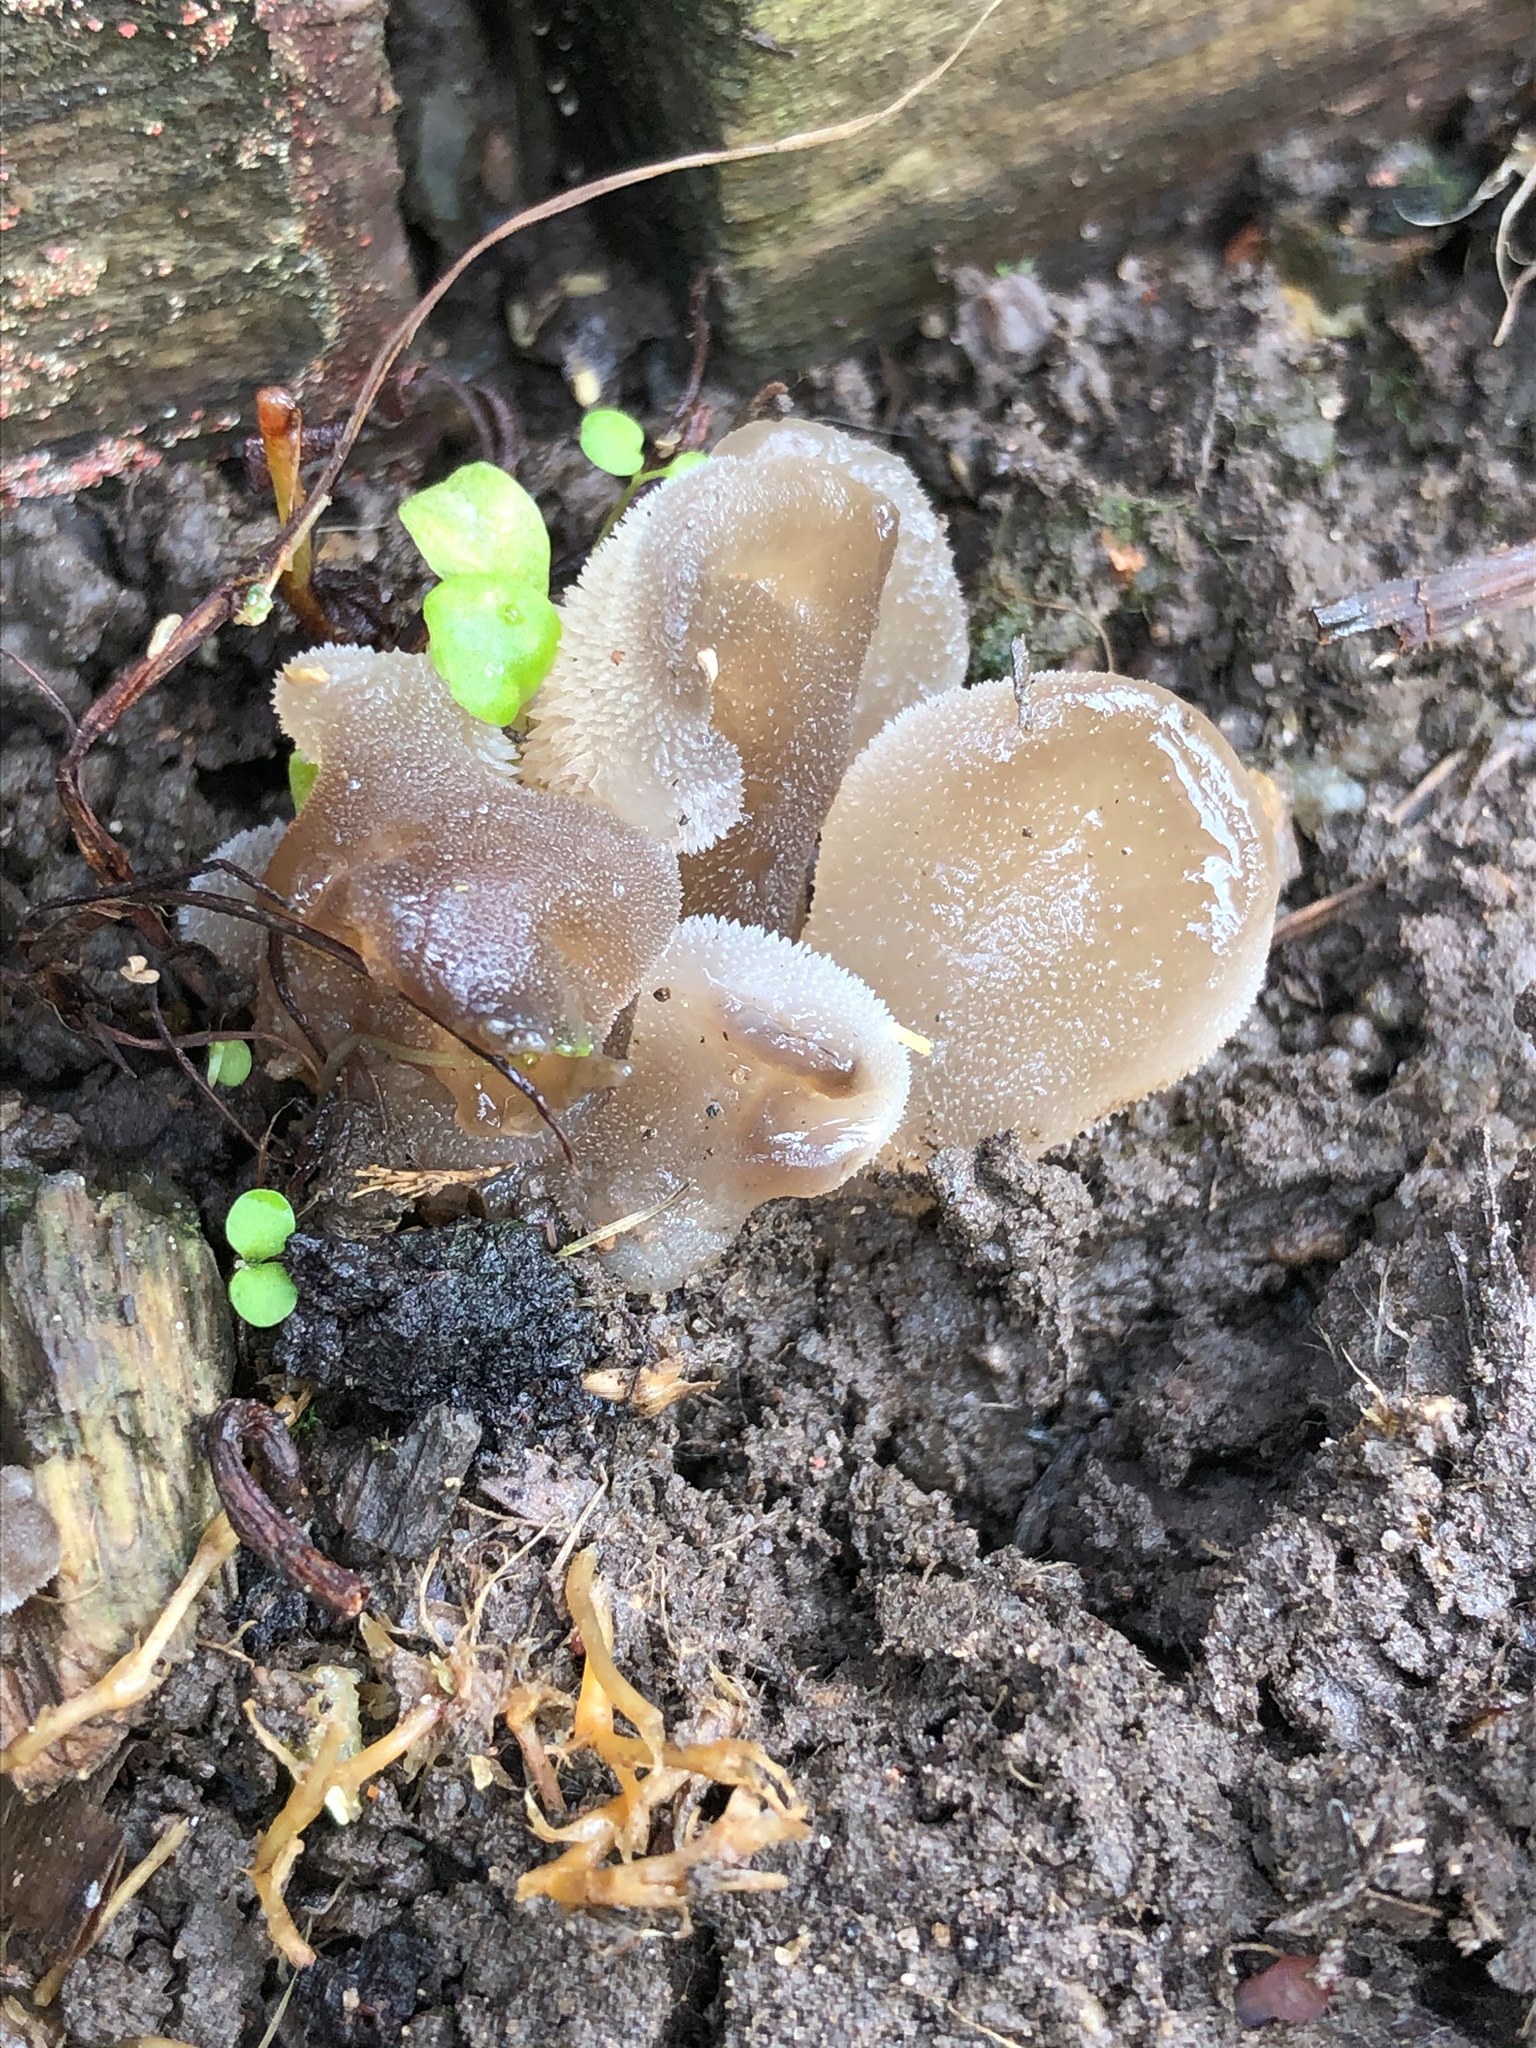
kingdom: Fungi
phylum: Basidiomycota
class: Agaricomycetes
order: Auriculariales
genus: Pseudohydnum
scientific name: Pseudohydnum gelatinosum
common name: Jelly tongue
